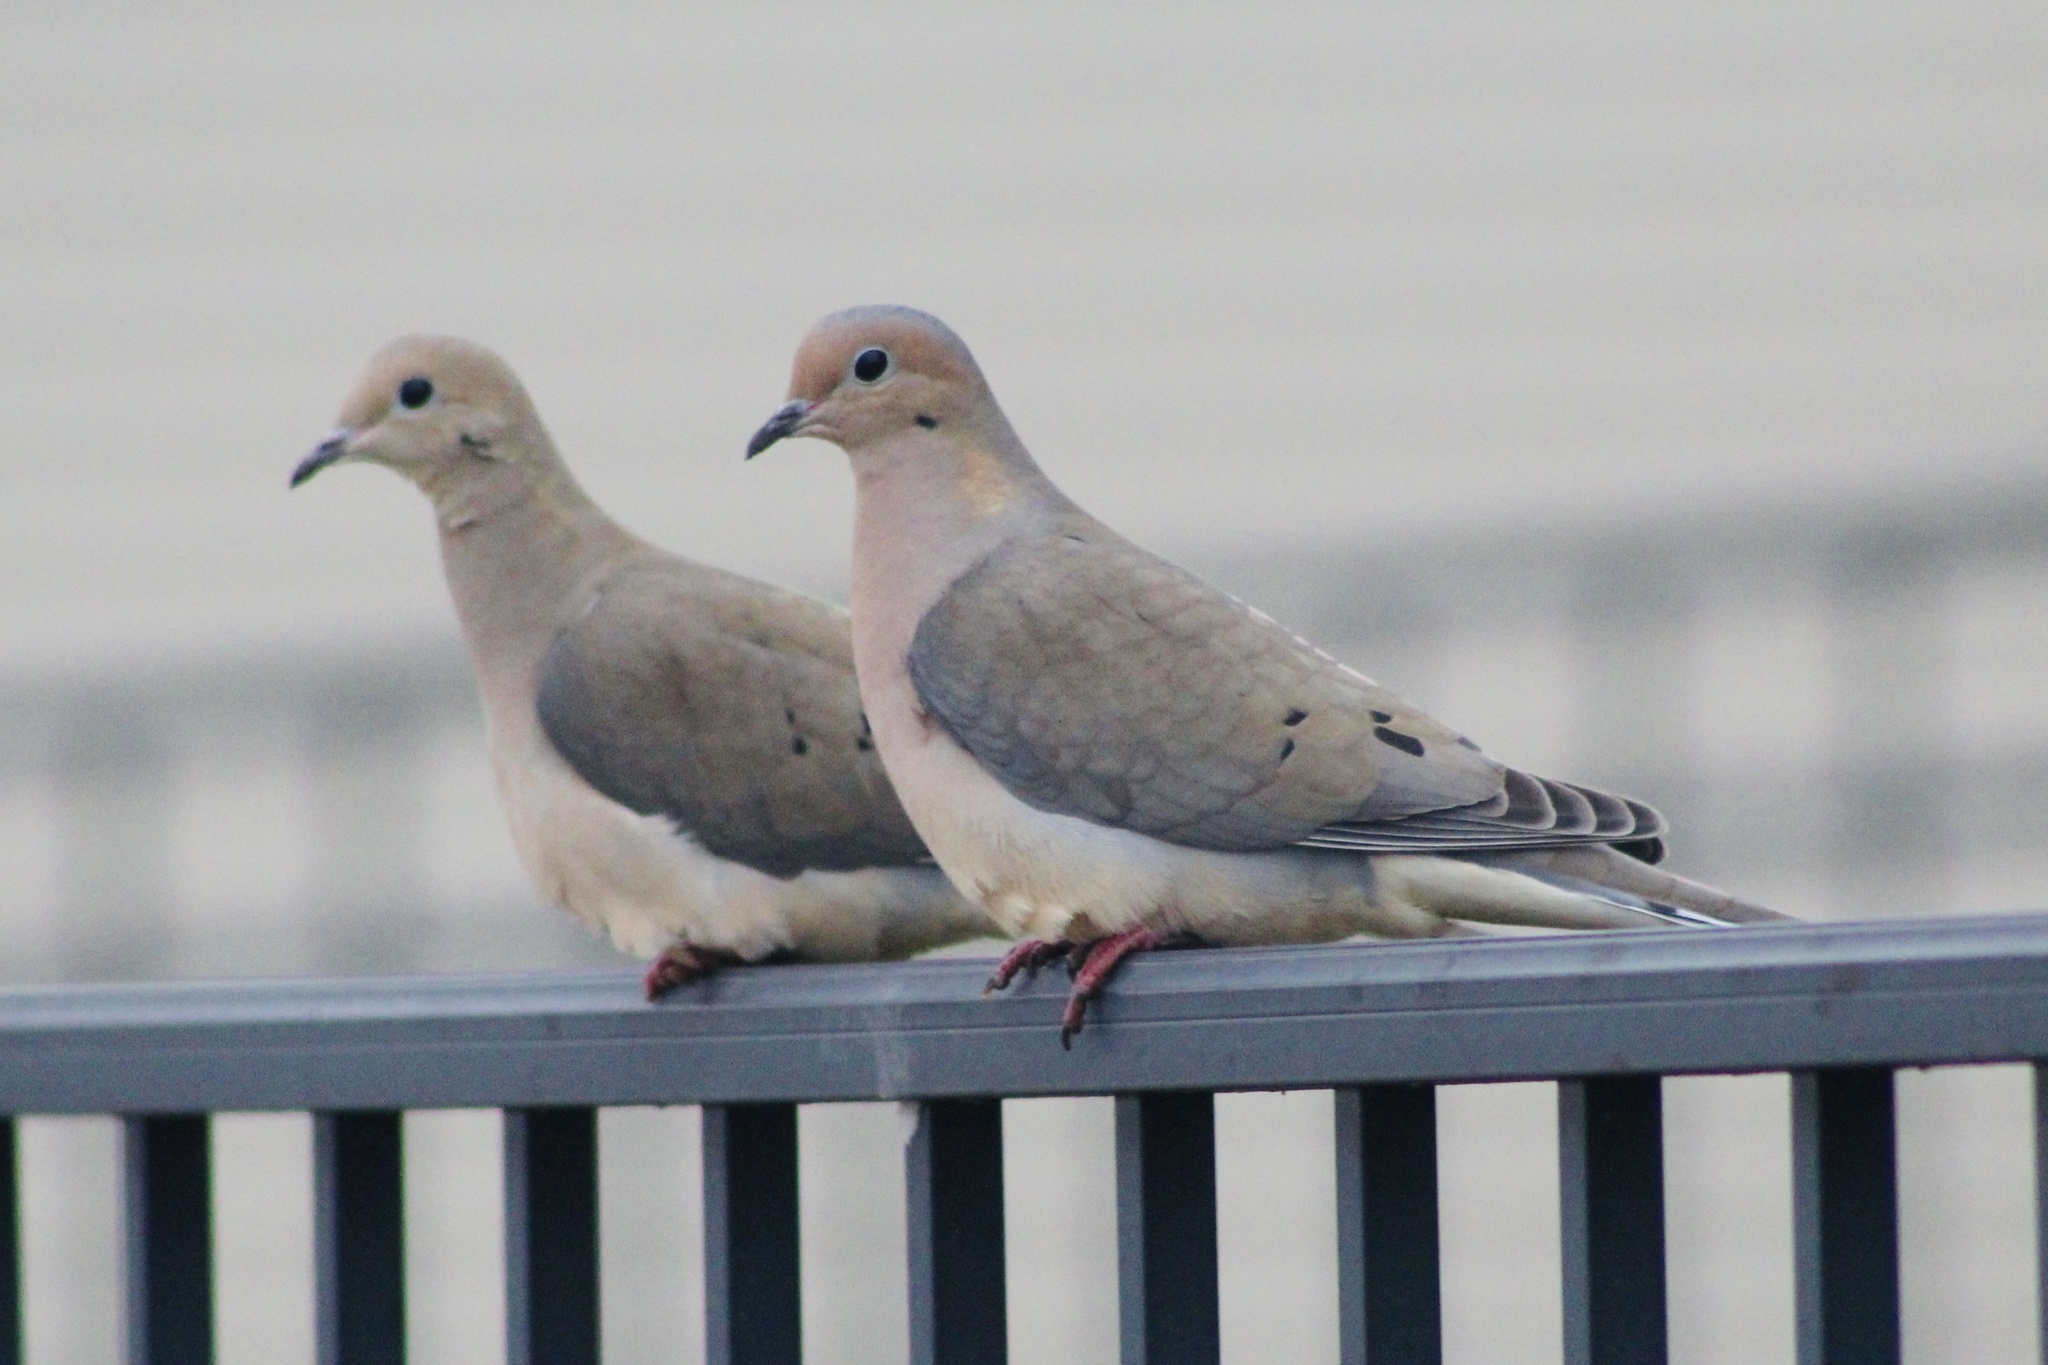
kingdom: Animalia
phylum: Chordata
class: Aves
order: Columbiformes
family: Columbidae
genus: Zenaida
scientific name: Zenaida macroura
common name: Mourning dove
